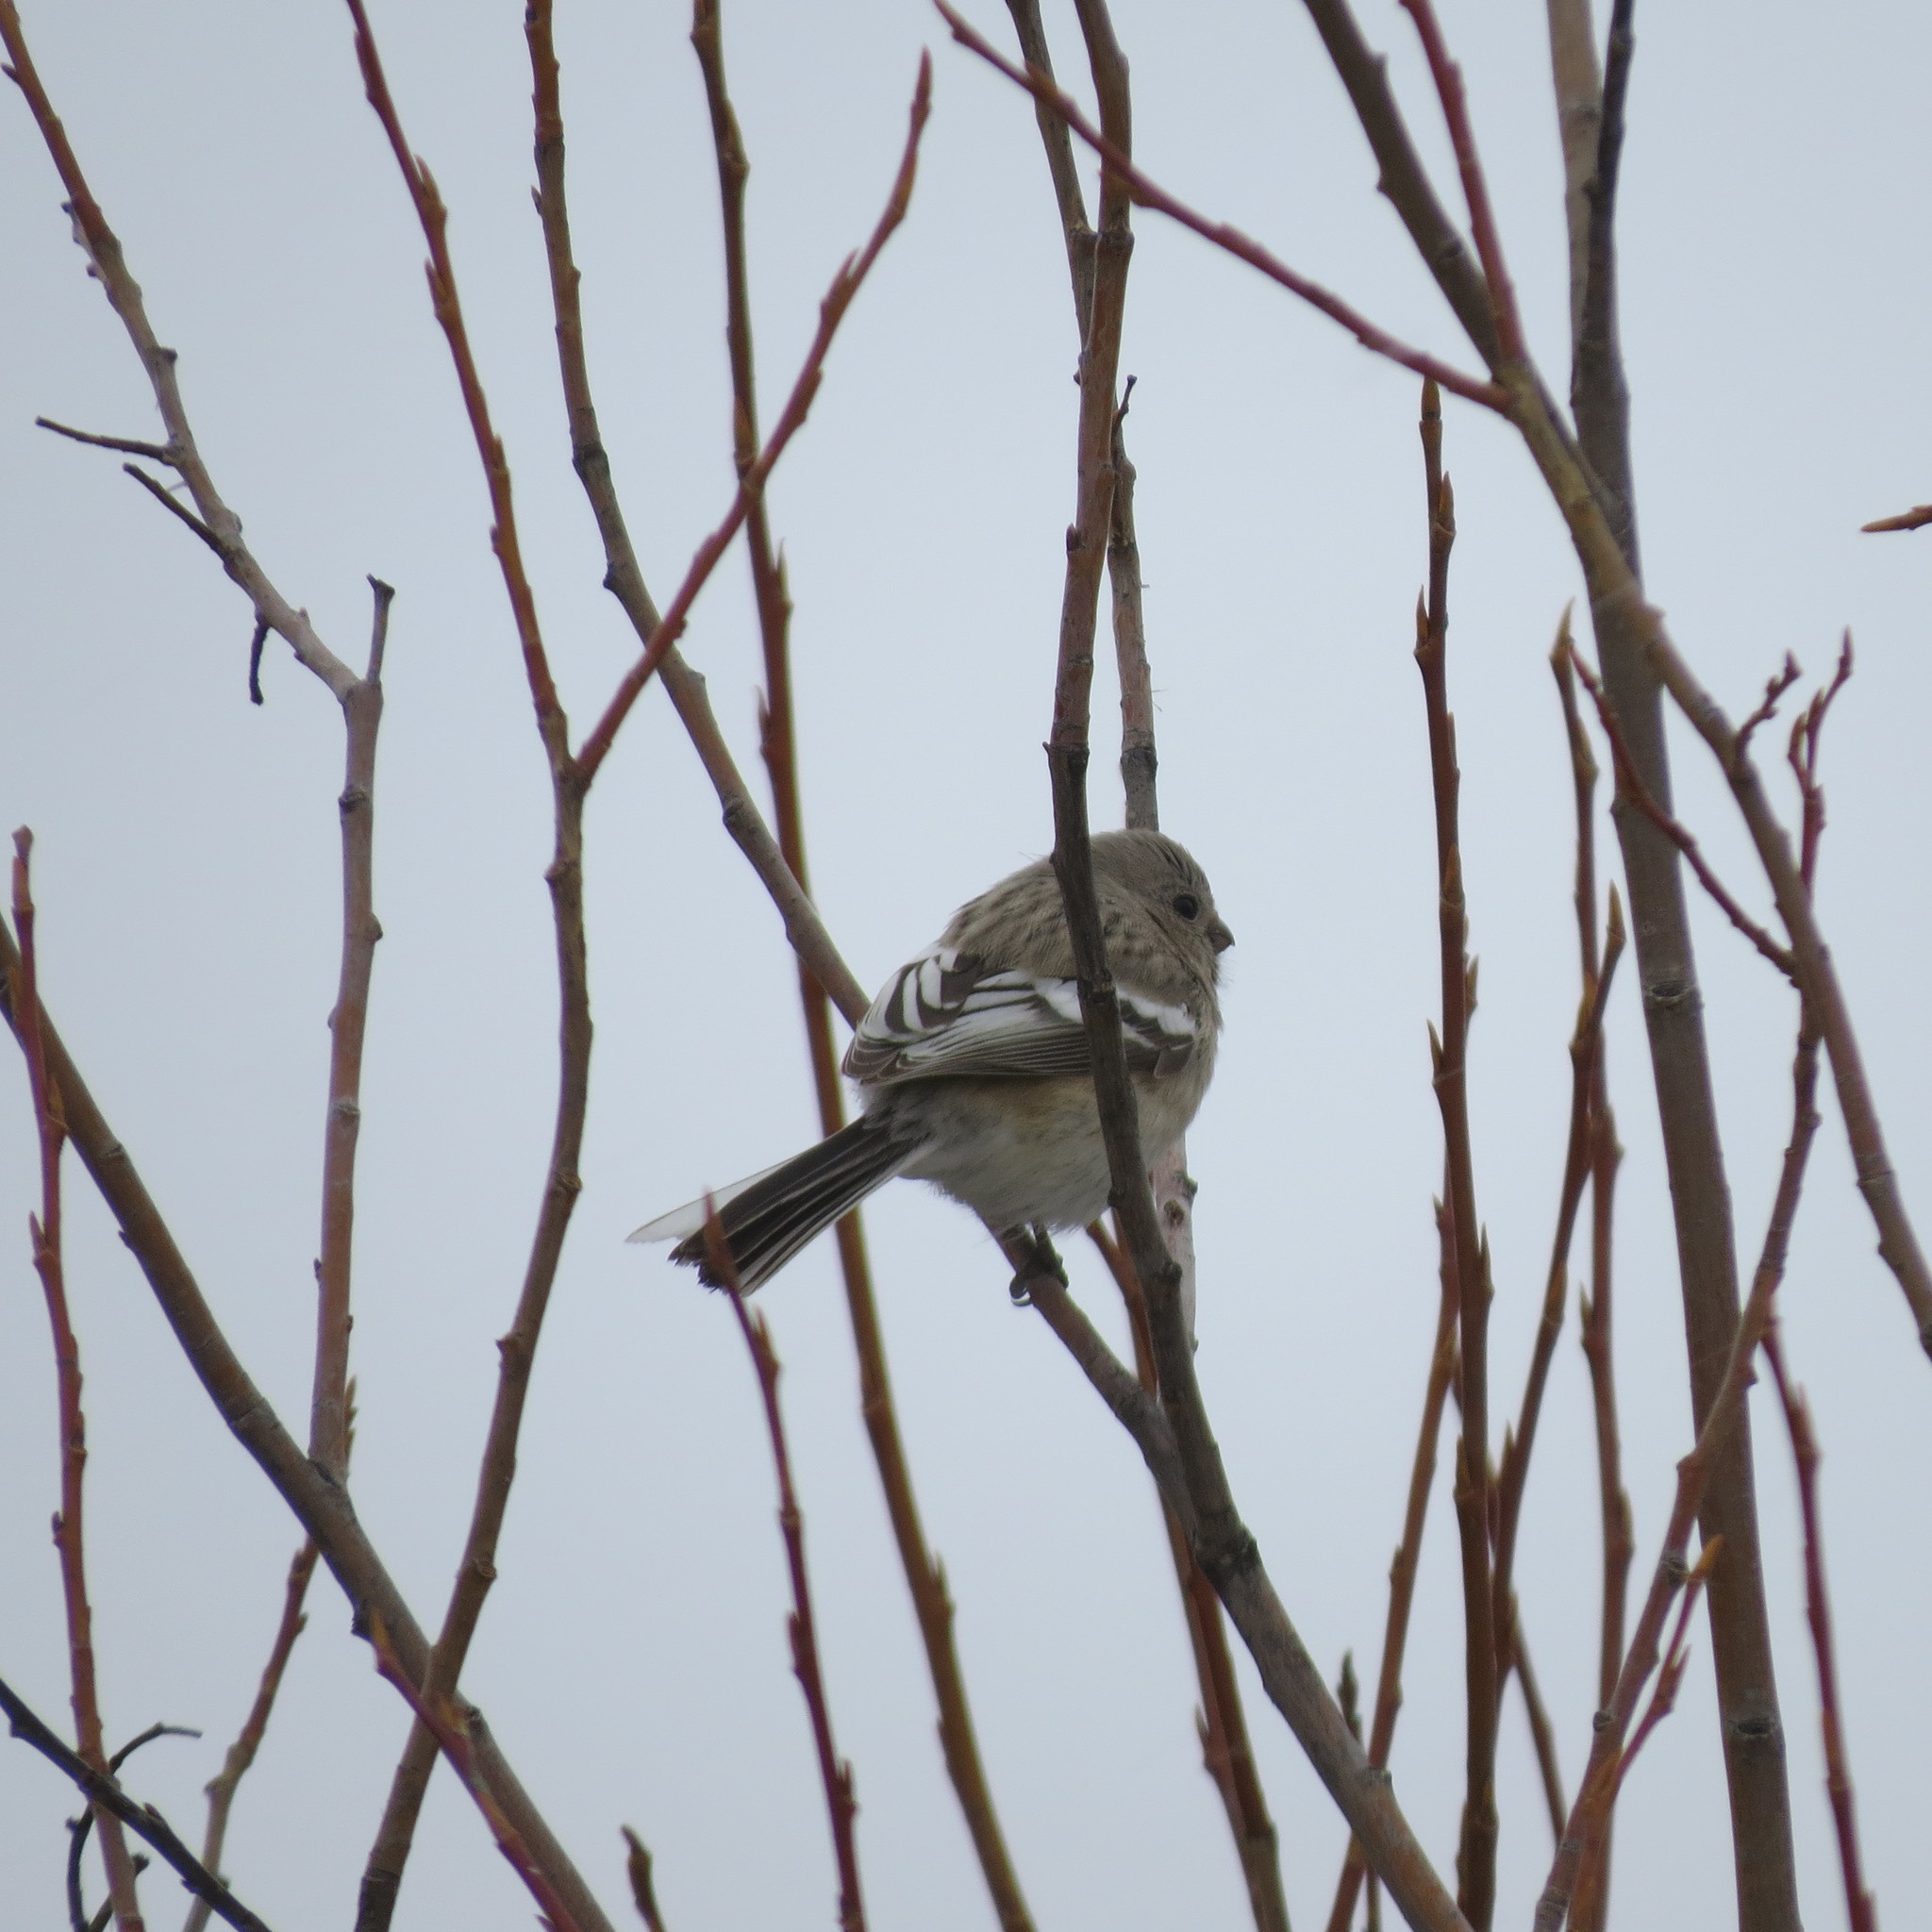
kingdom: Animalia
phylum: Chordata
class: Aves
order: Passeriformes
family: Fringillidae
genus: Carpodacus
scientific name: Carpodacus sibiricus
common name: Long-tailed rosefinch
